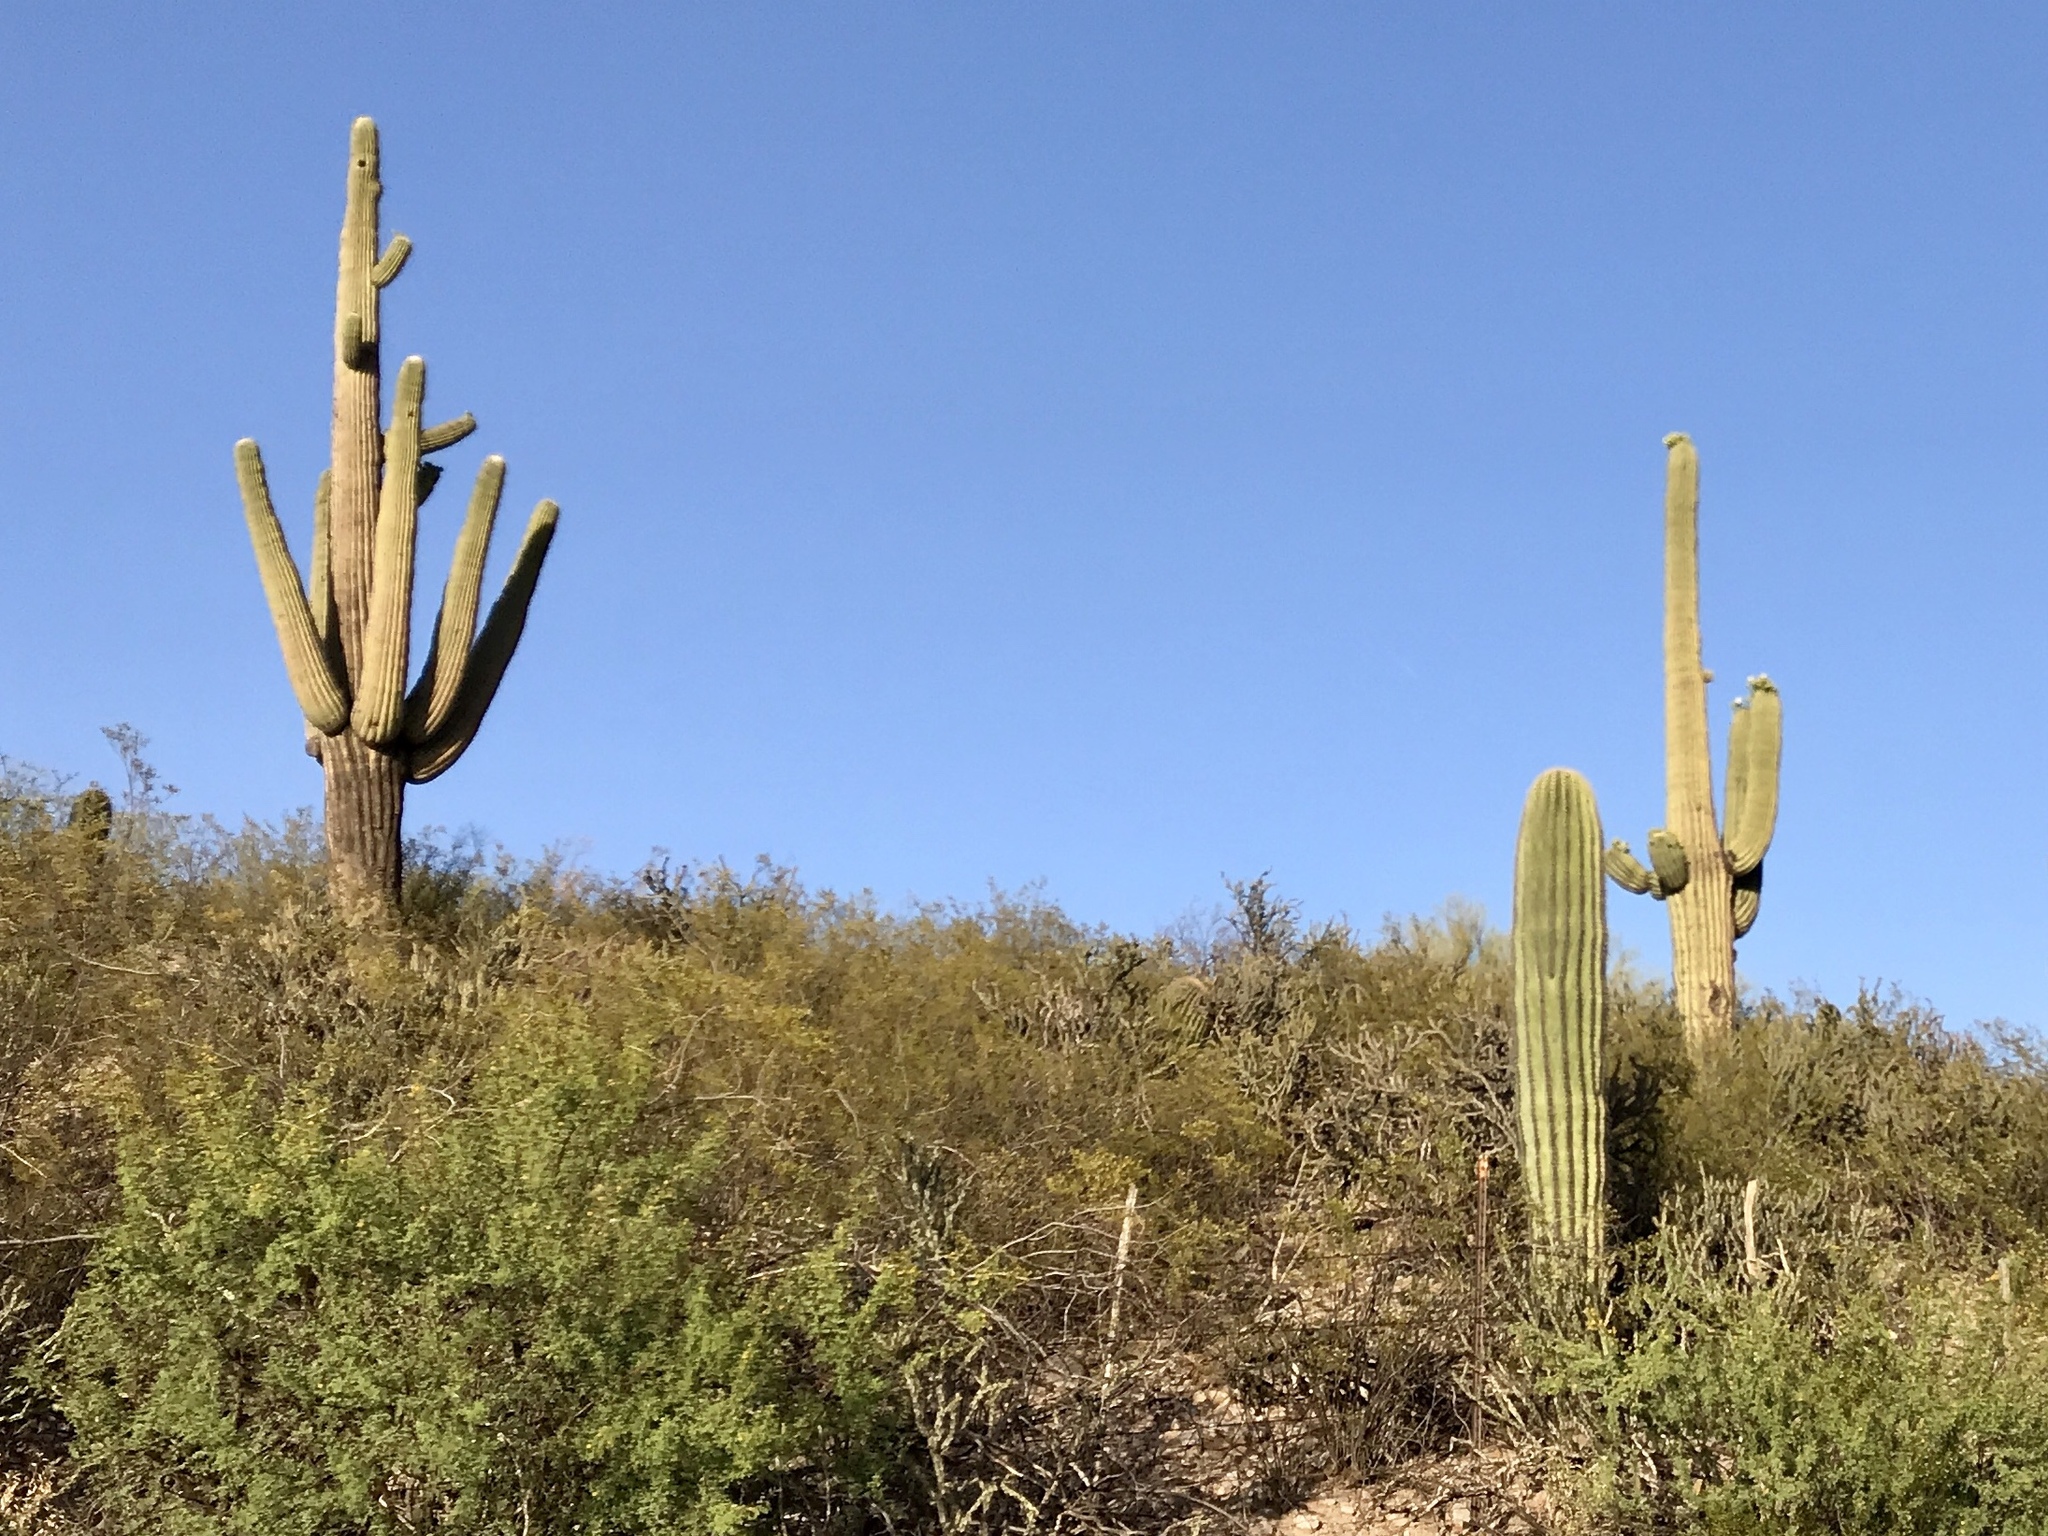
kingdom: Plantae
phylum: Tracheophyta
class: Magnoliopsida
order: Caryophyllales
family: Cactaceae
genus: Carnegiea
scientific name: Carnegiea gigantea
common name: Saguaro
